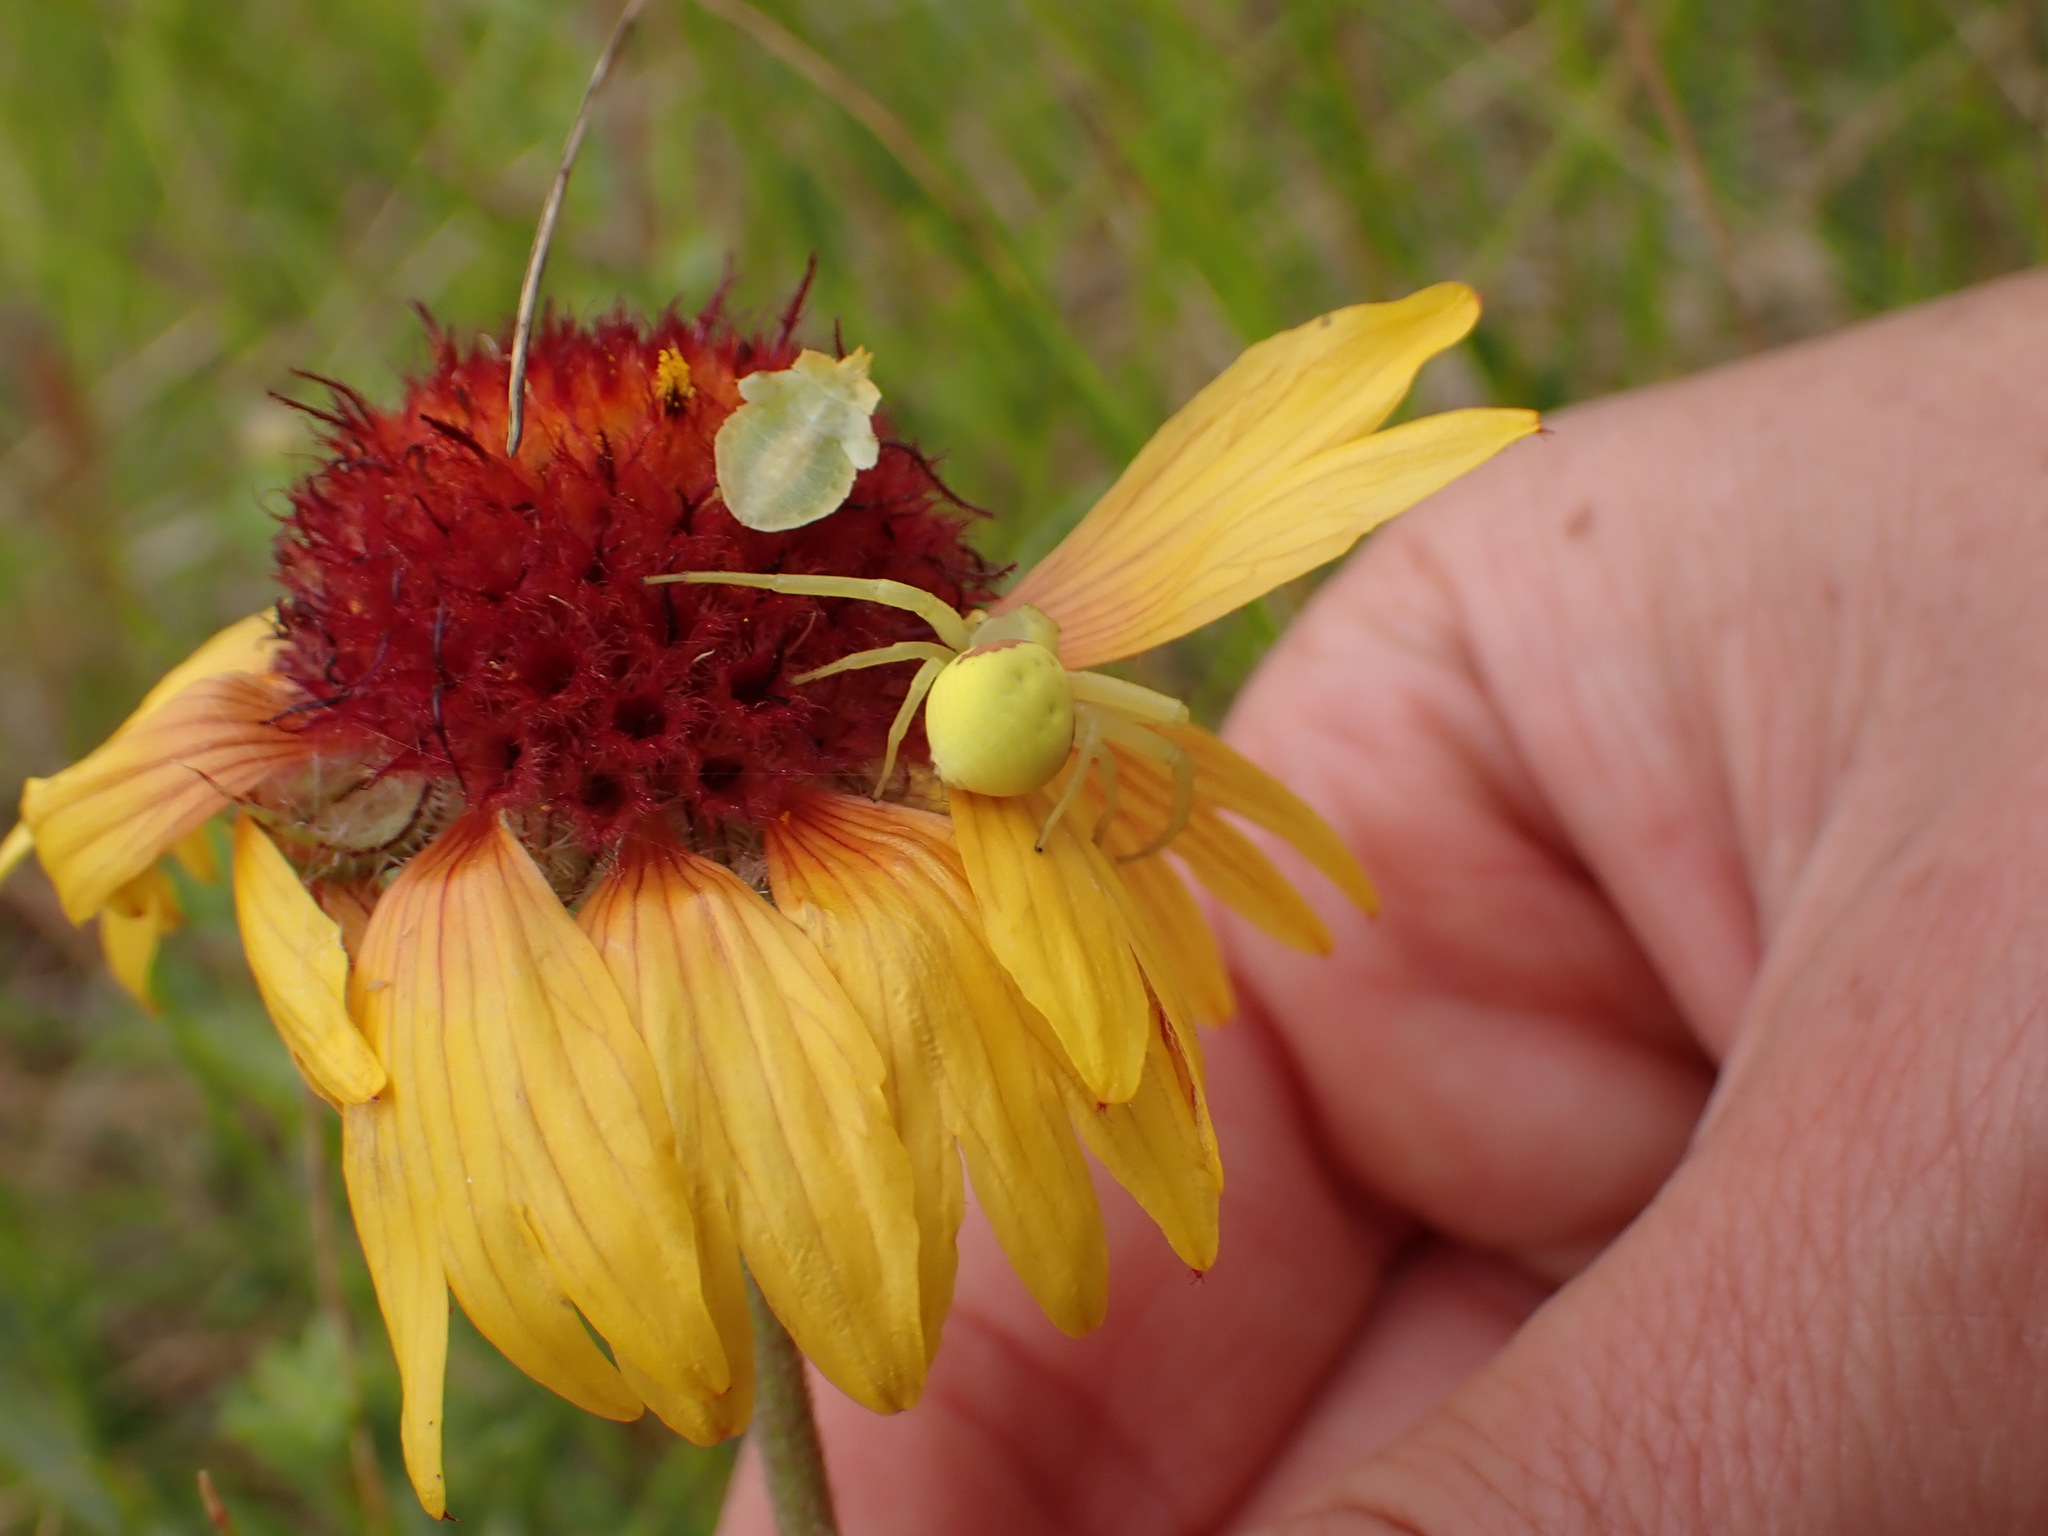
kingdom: Animalia
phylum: Arthropoda
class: Arachnida
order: Araneae
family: Thomisidae
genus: Misumena
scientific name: Misumena vatia
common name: Goldenrod crab spider
